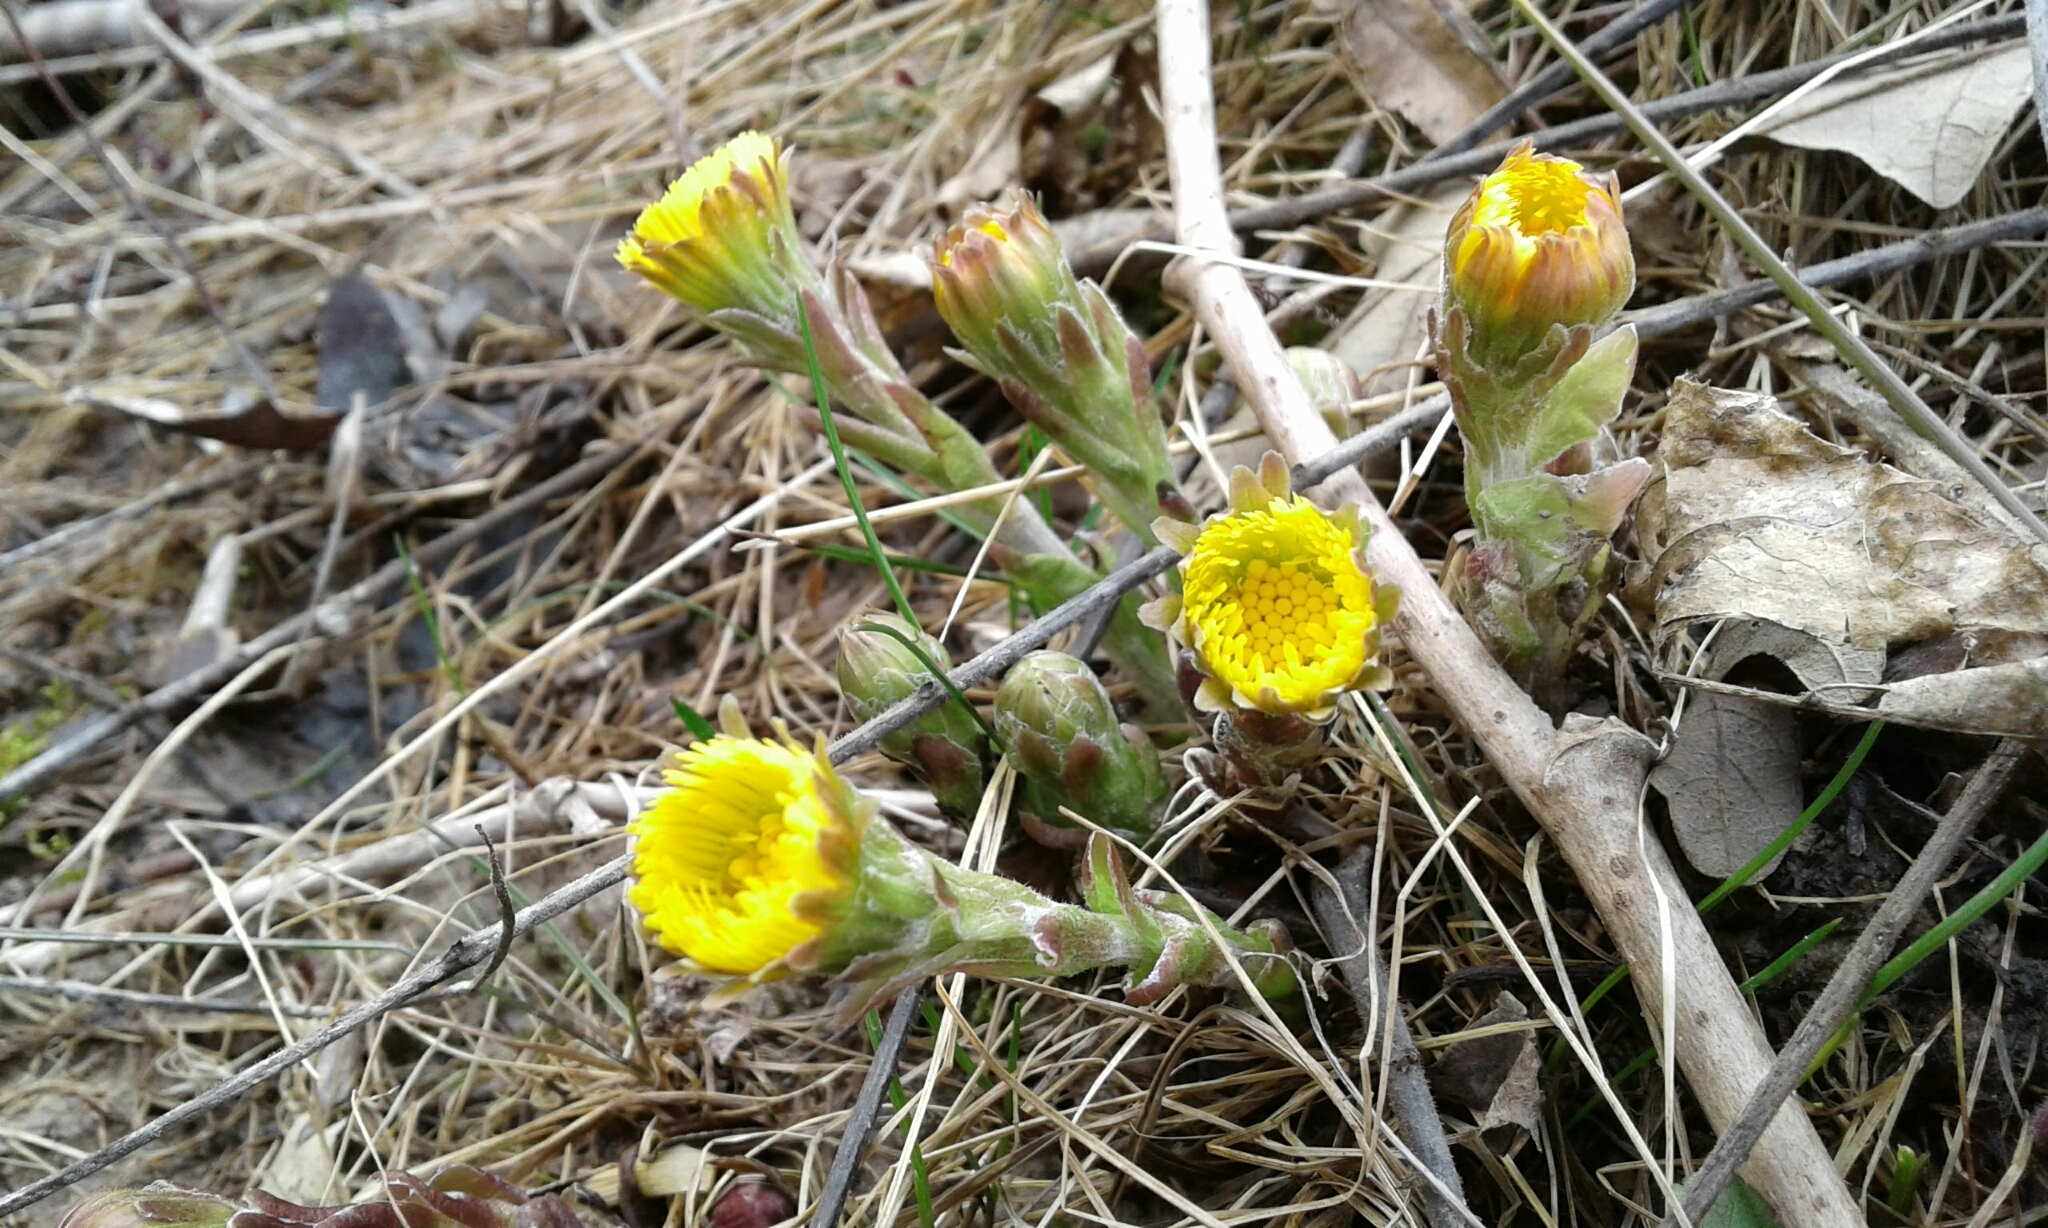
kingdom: Plantae
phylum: Tracheophyta
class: Magnoliopsida
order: Asterales
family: Asteraceae
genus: Tussilago
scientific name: Tussilago farfara
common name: Coltsfoot
